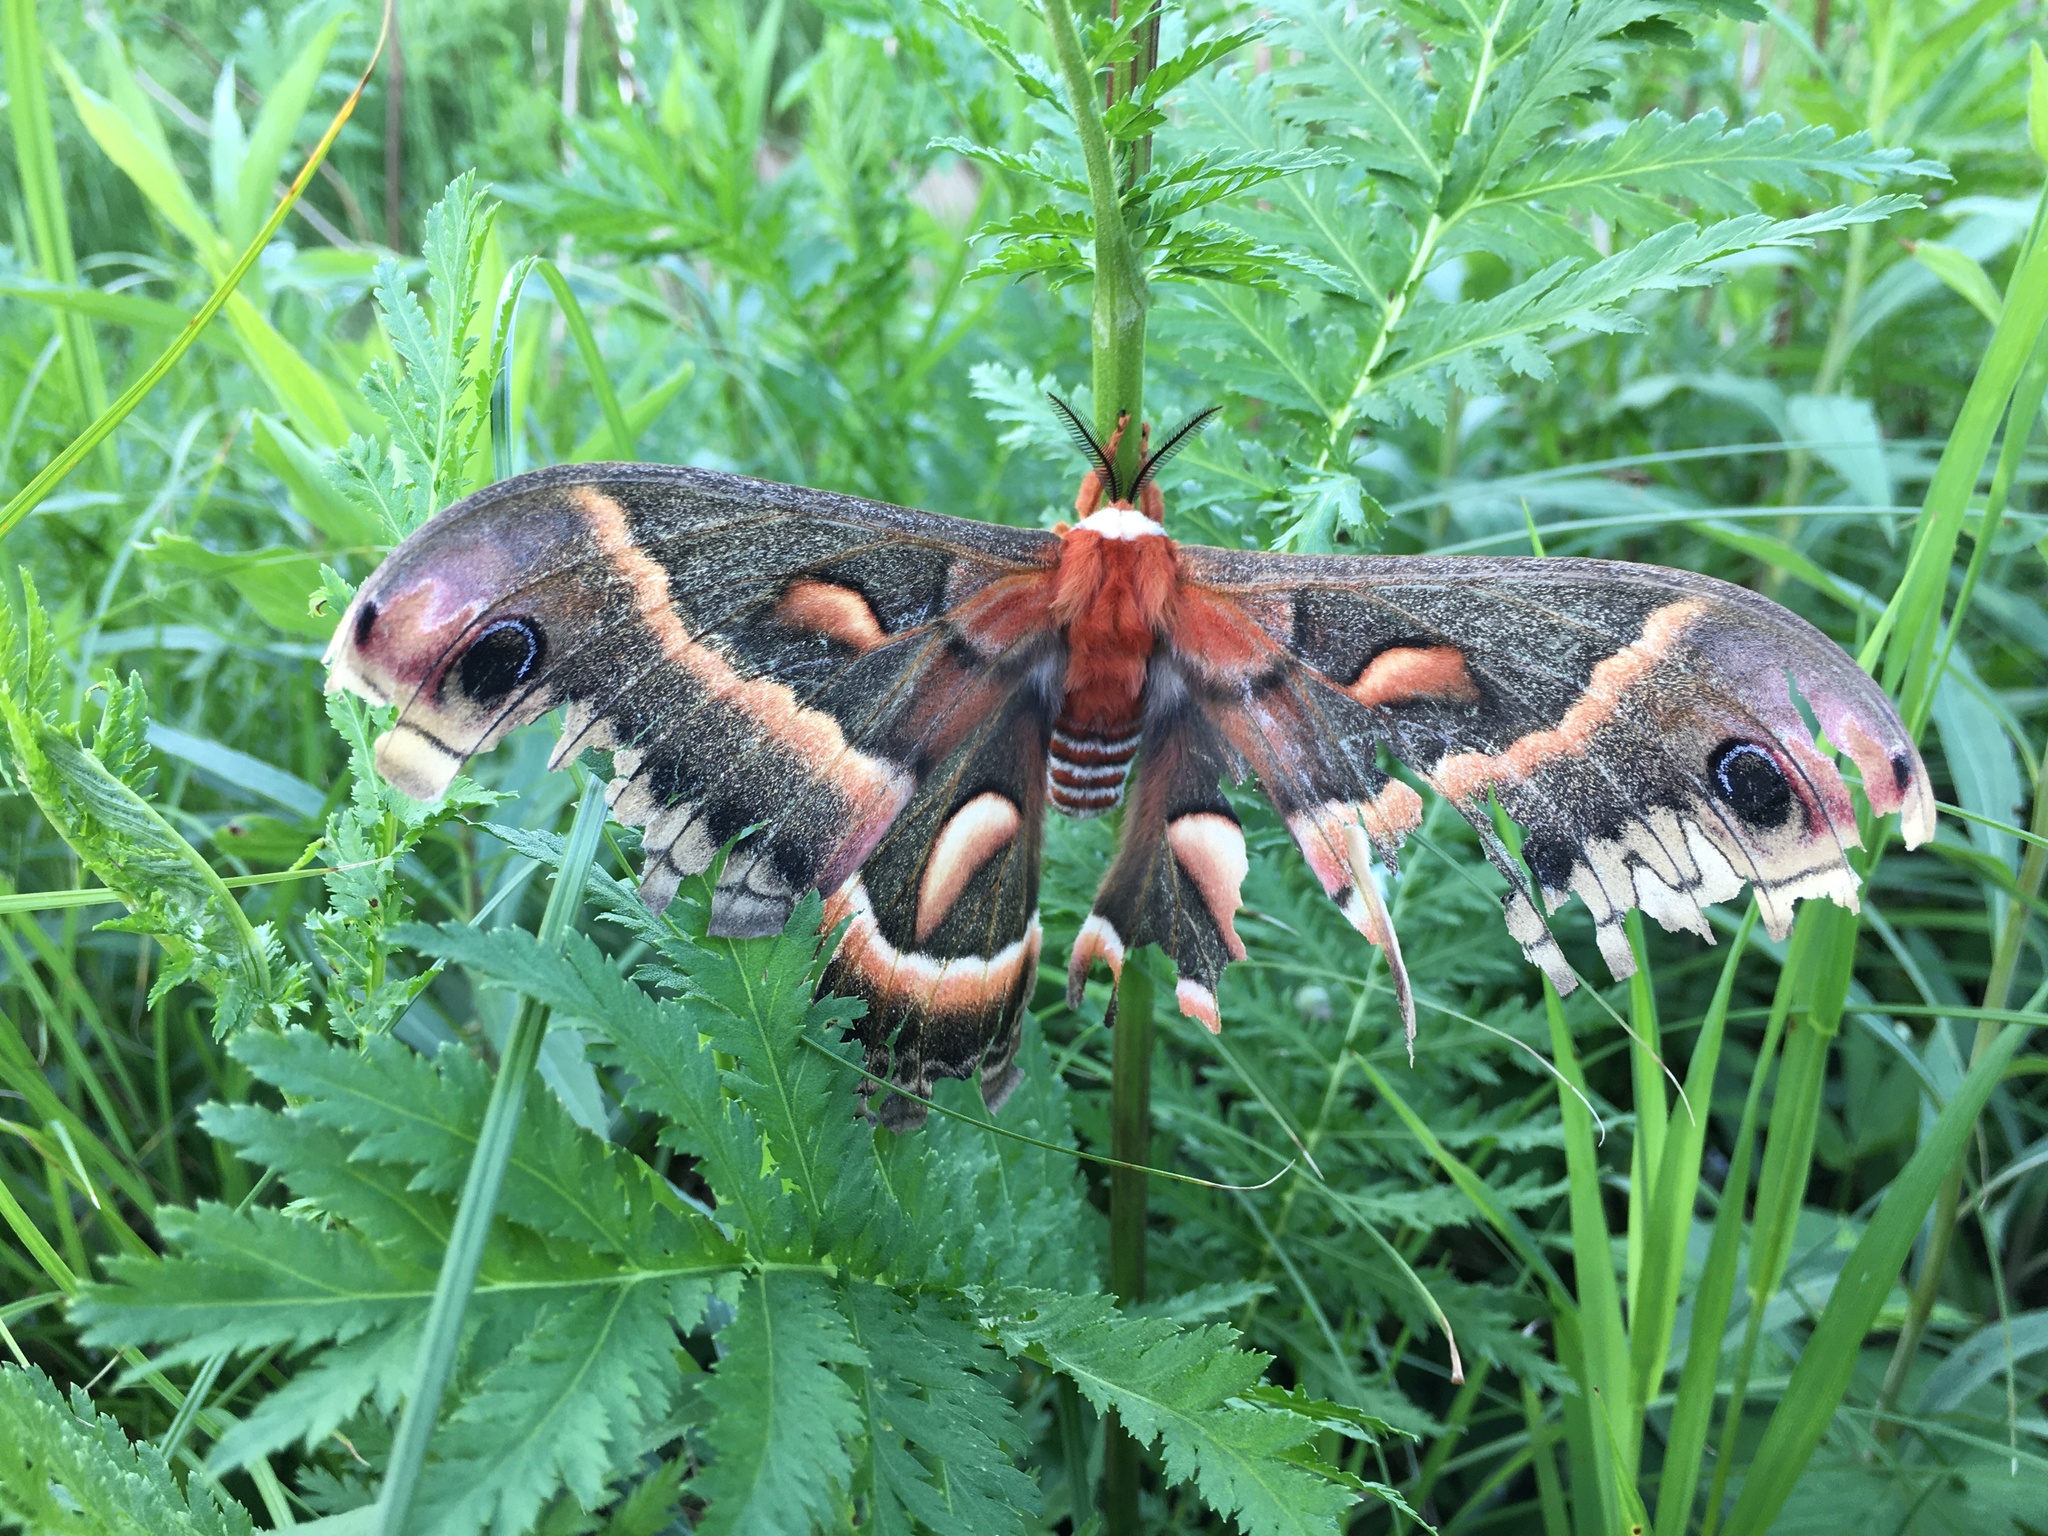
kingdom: Animalia
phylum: Arthropoda
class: Insecta
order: Lepidoptera
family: Saturniidae
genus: Hyalophora
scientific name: Hyalophora cecropia
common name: Cecropia silkmoth
